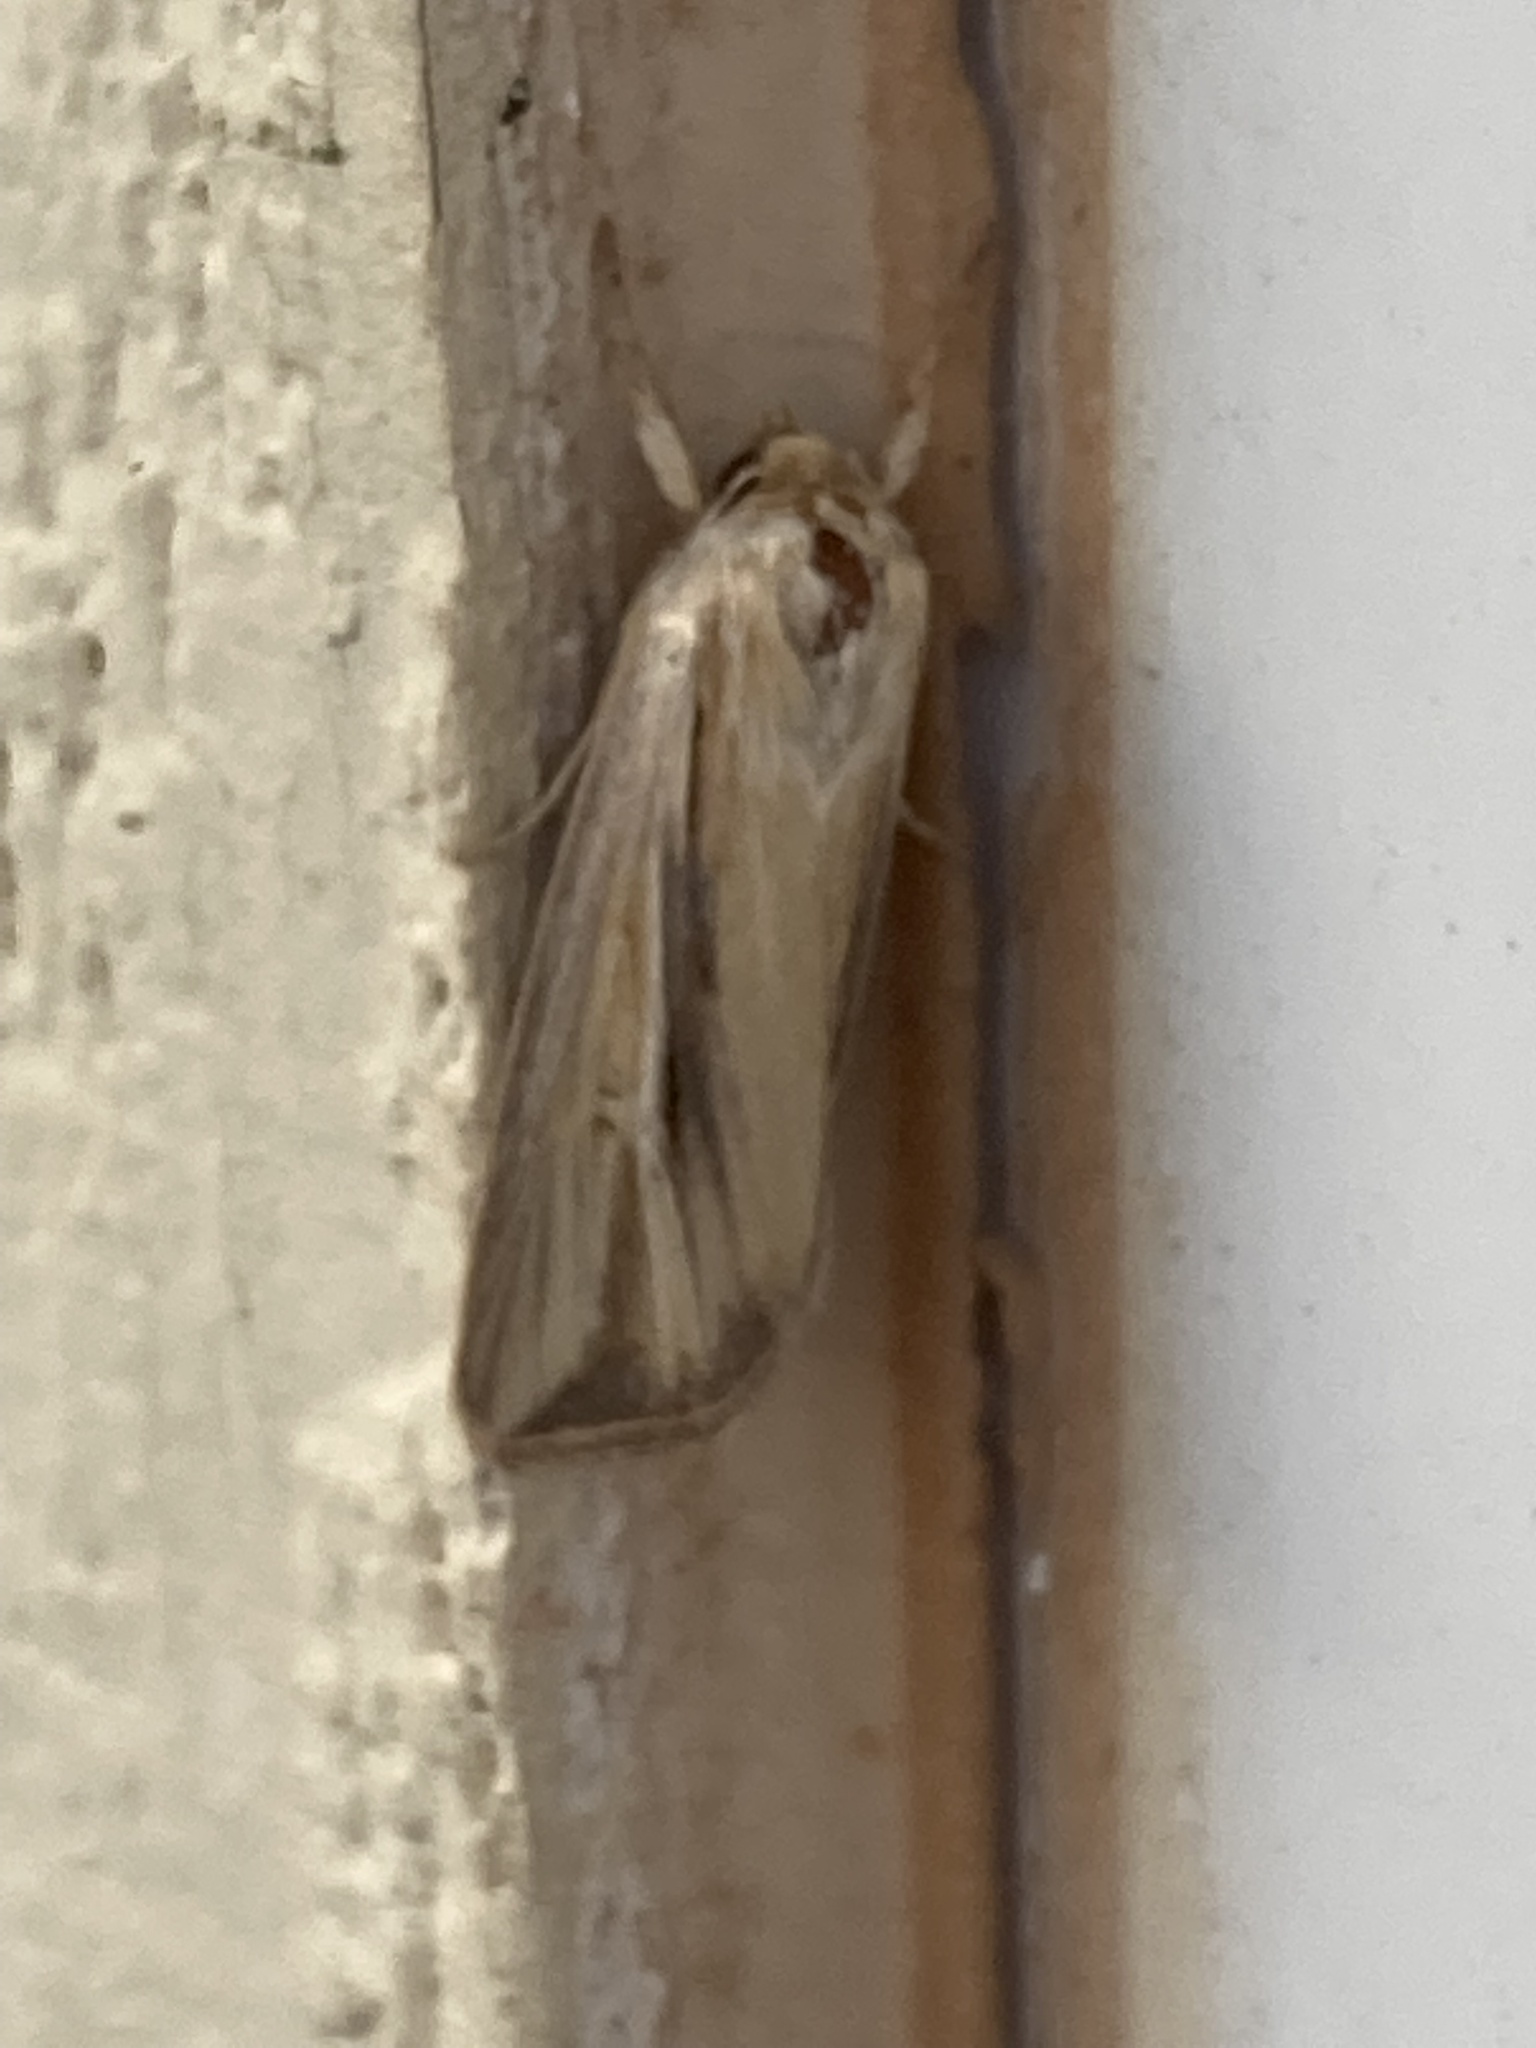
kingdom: Animalia
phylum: Arthropoda
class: Insecta
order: Lepidoptera
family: Noctuidae
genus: Dargida
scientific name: Dargida diffusa
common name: Wheat head armyworm
